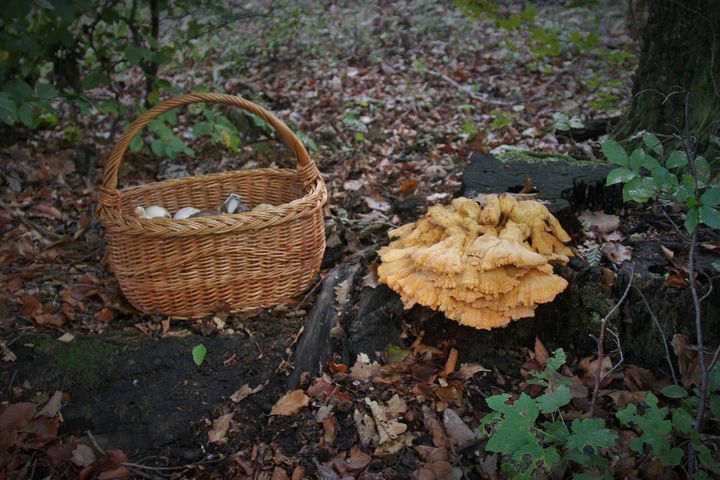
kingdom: Fungi
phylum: Basidiomycota
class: Agaricomycetes
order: Polyporales
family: Laetiporaceae
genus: Laetiporus
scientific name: Laetiporus sulphureus
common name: Chicken of the woods
